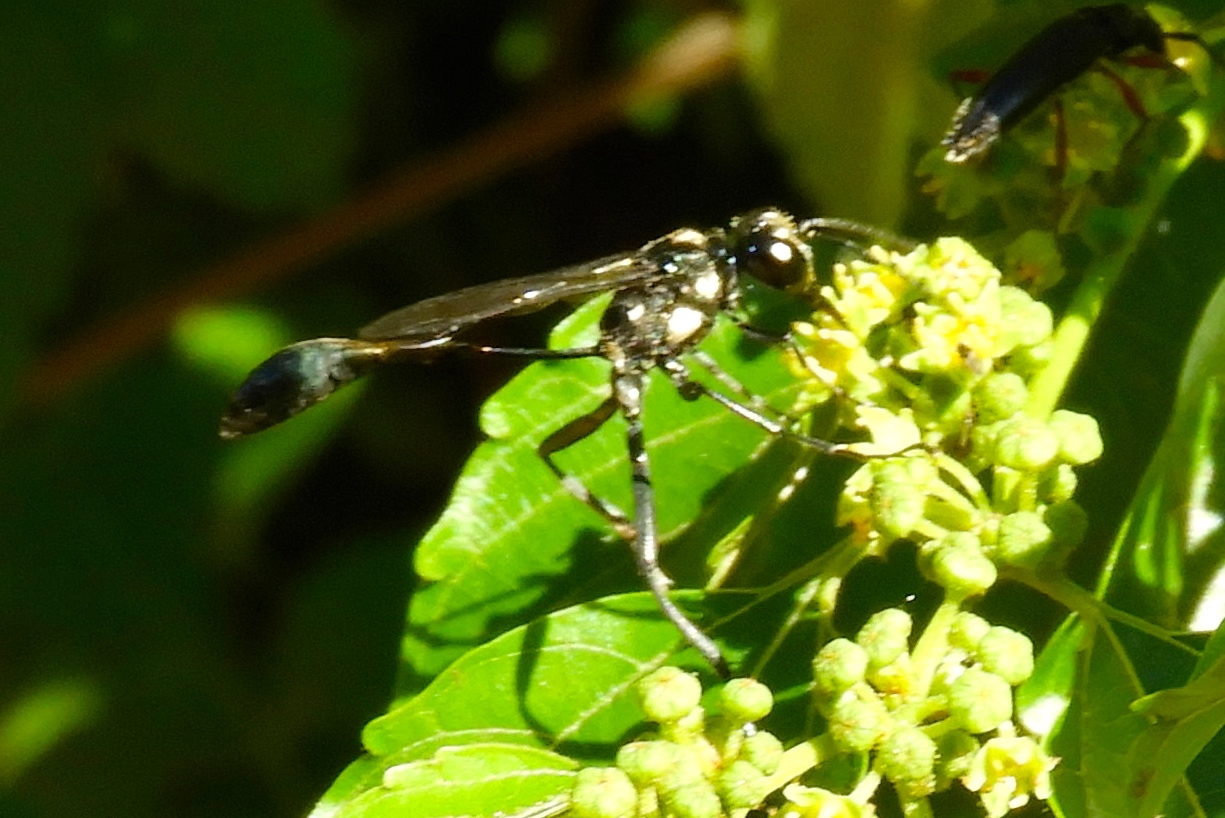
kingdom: Animalia
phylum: Arthropoda
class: Insecta
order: Hymenoptera
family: Sphecidae
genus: Eremnophila
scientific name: Eremnophila aureonotata
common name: Gold-marked thread-waisted wasp
